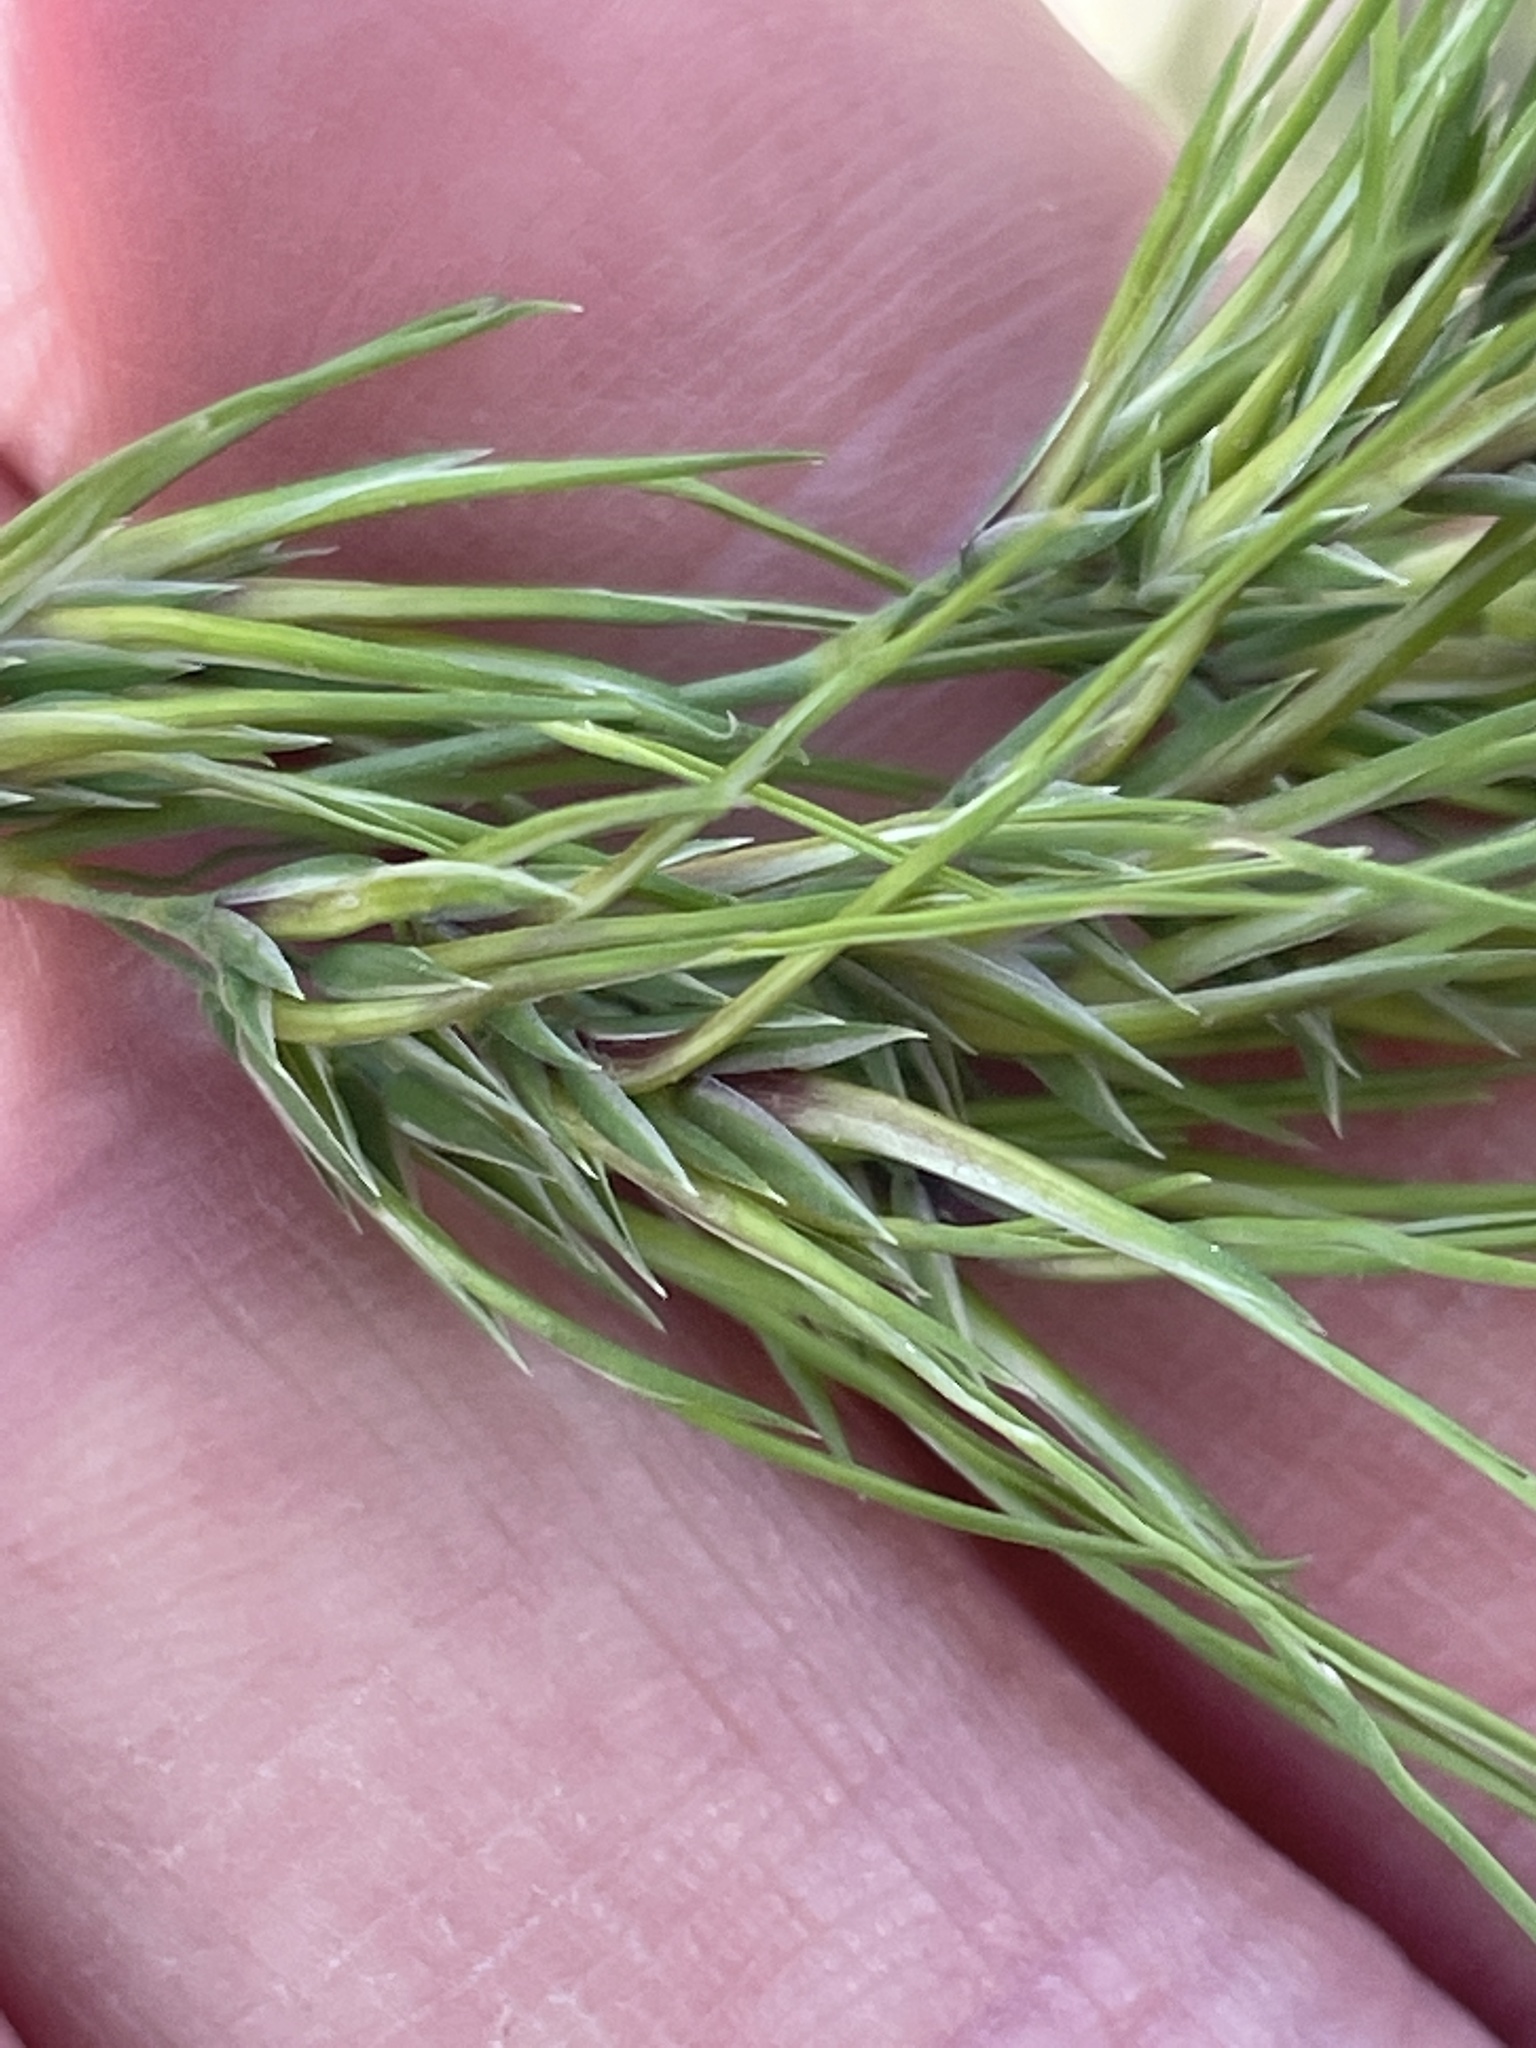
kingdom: Plantae
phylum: Tracheophyta
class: Liliopsida
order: Poales
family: Poaceae
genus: Poa
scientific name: Poa bulbosa
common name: Bulbous bluegrass
